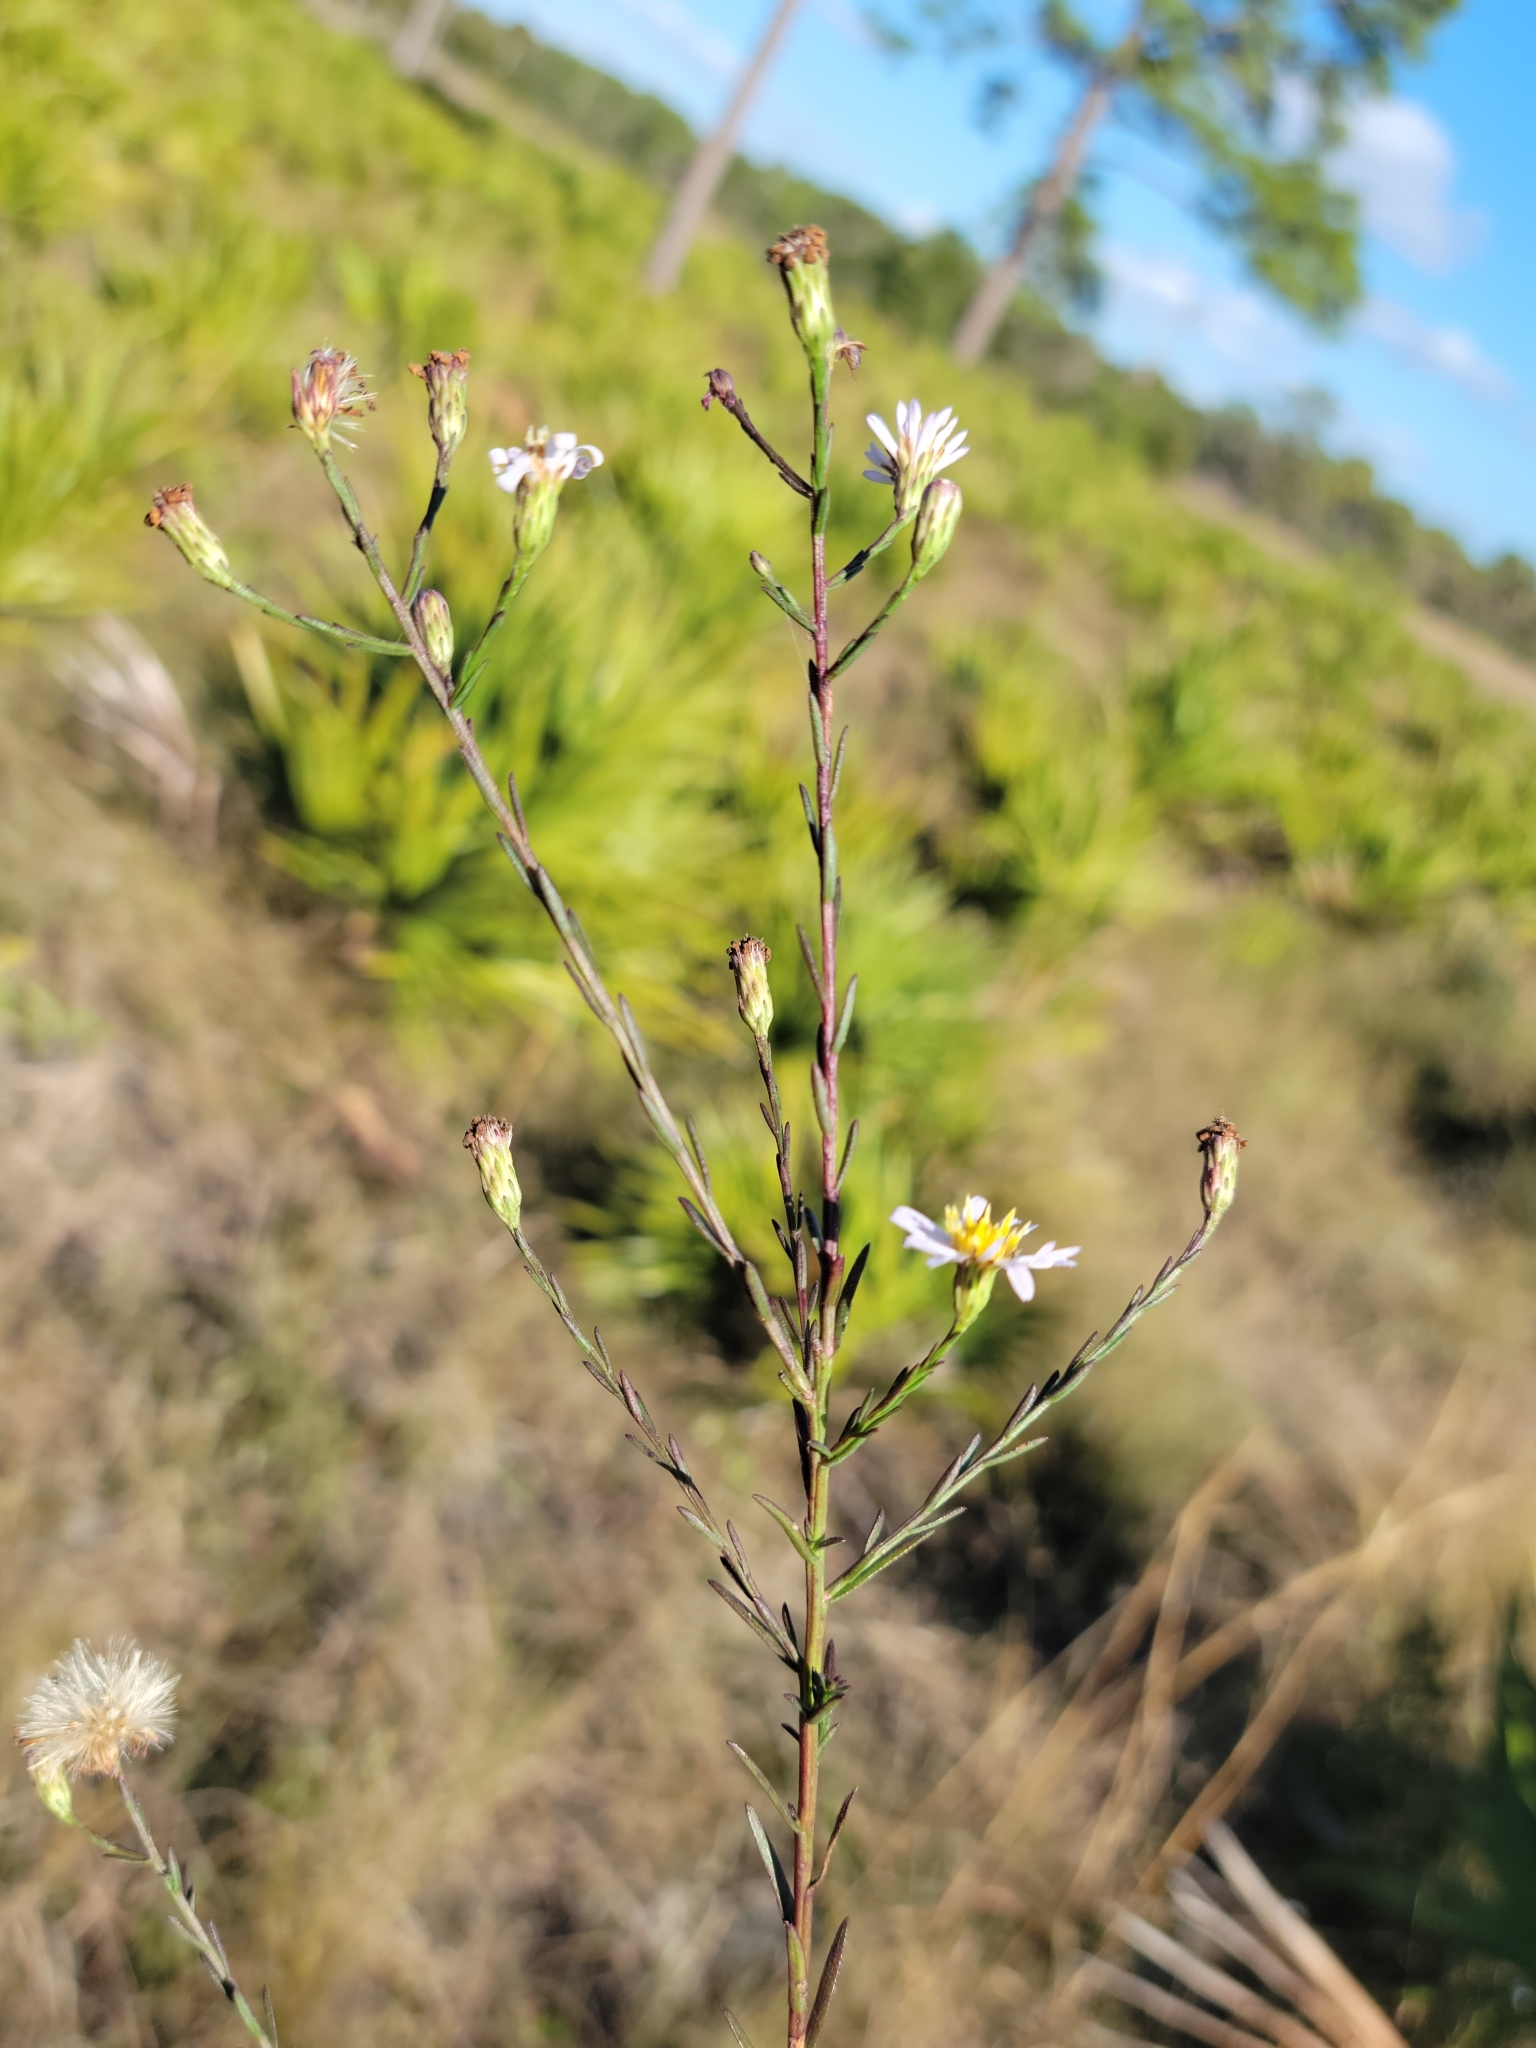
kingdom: Plantae
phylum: Tracheophyta
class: Magnoliopsida
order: Asterales
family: Asteraceae
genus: Symphyotrichum
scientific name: Symphyotrichum dumosum
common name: Bushy aster
